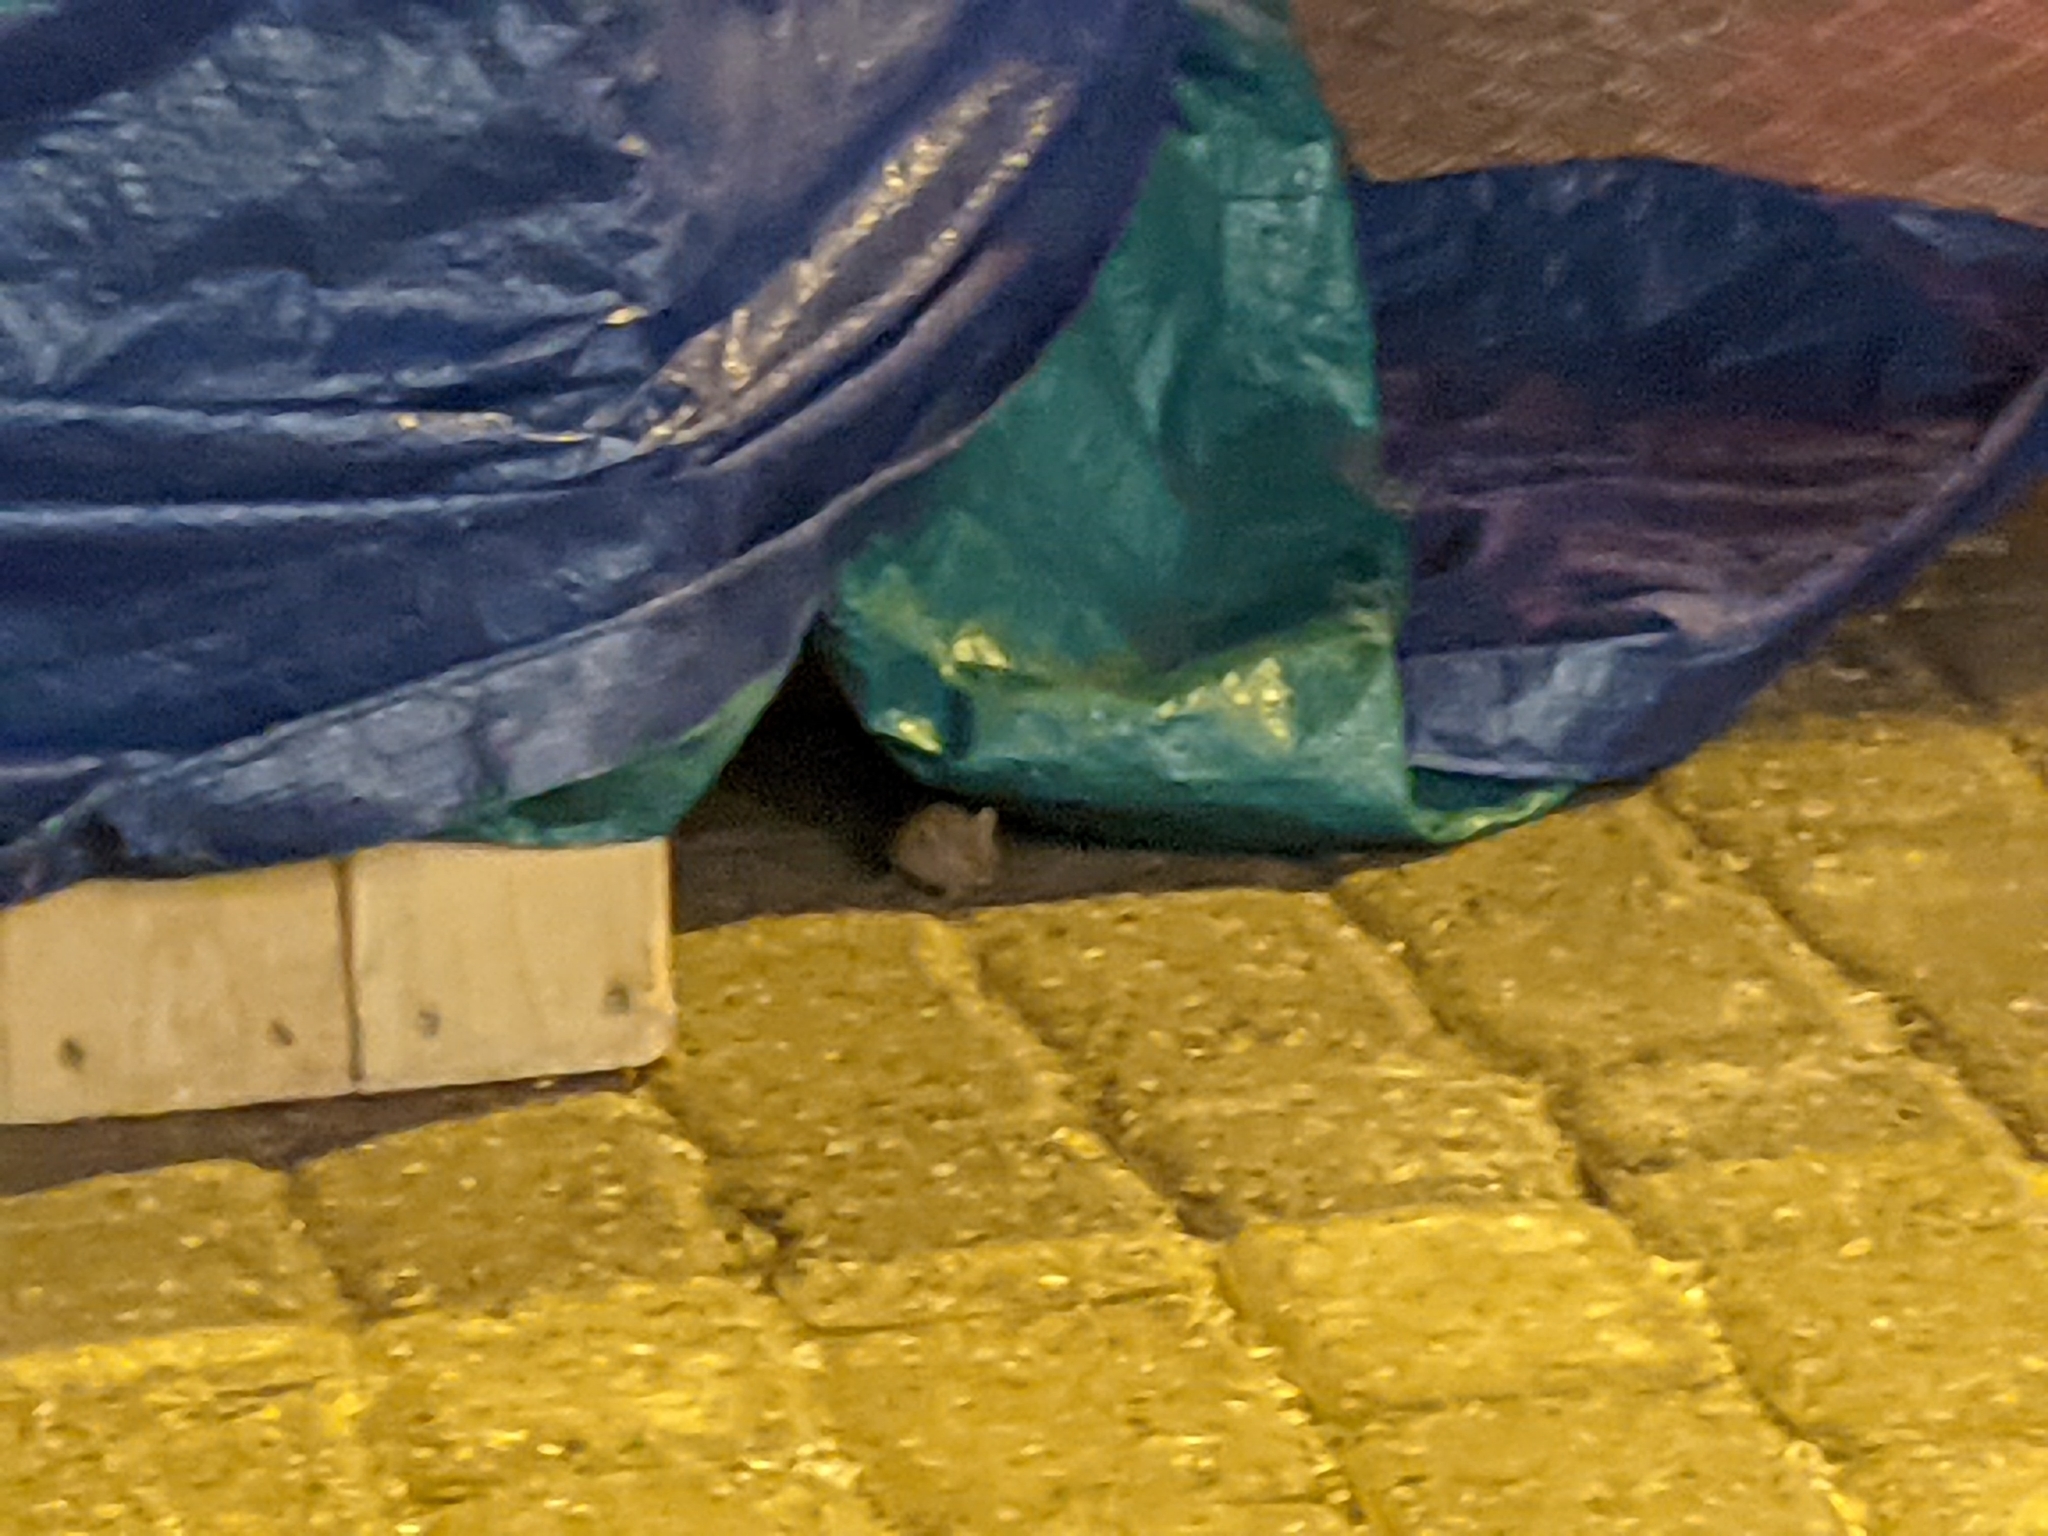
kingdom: Animalia
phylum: Chordata
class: Mammalia
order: Rodentia
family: Muridae
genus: Mus
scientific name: Mus musculus
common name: House mouse
